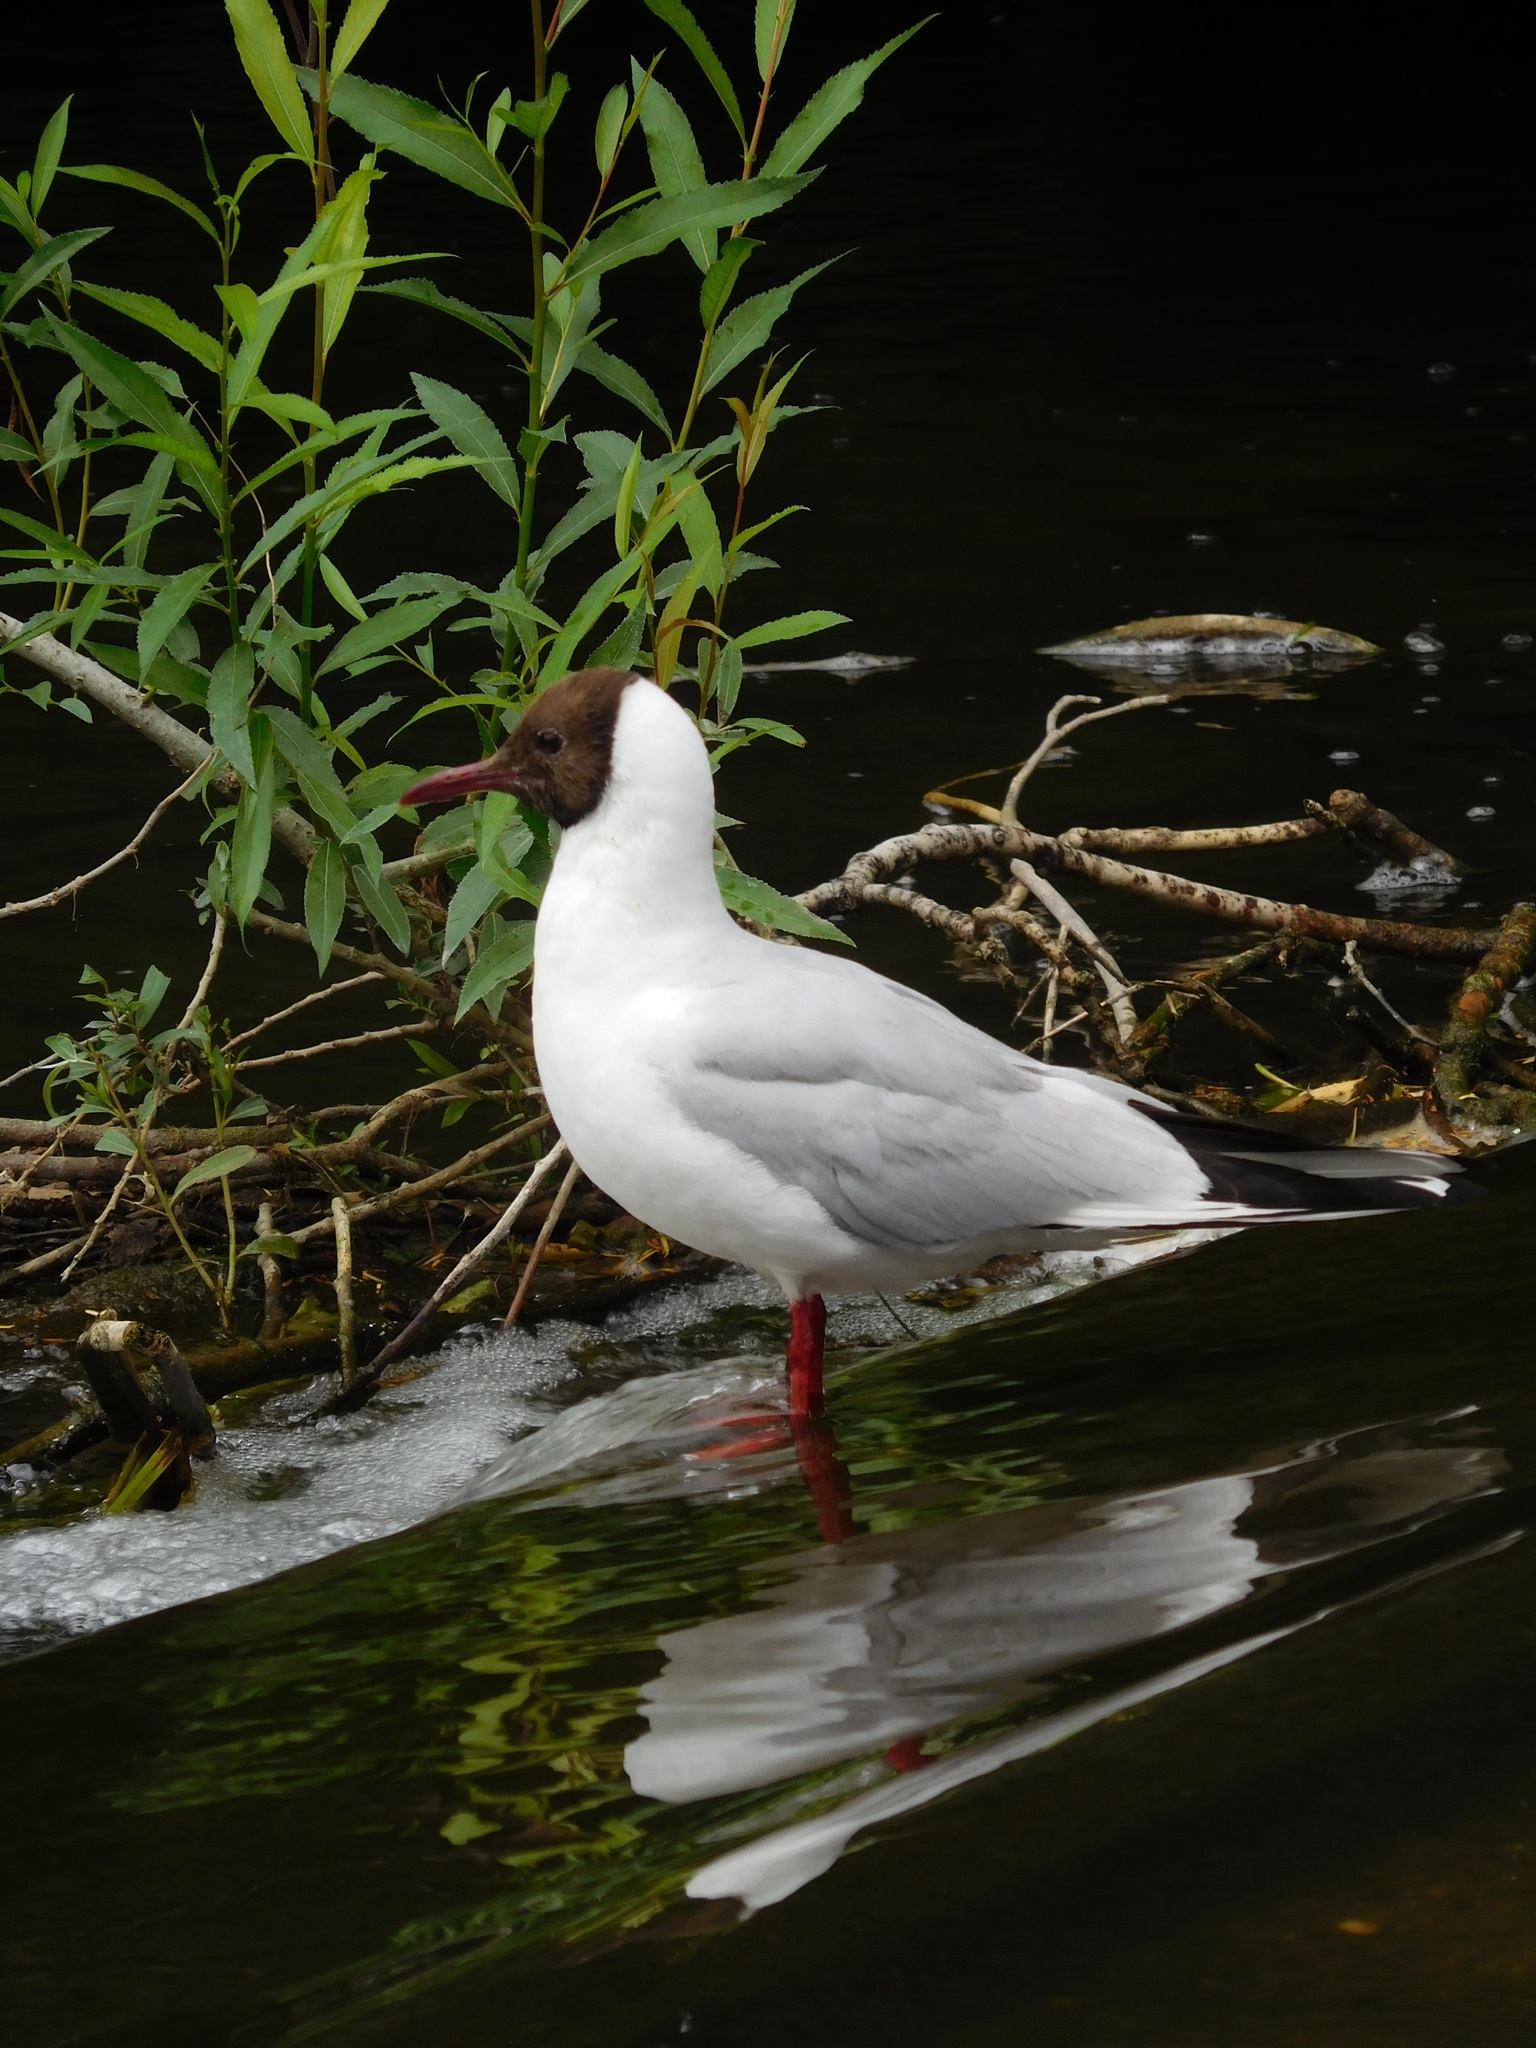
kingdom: Animalia
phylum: Chordata
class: Aves
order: Charadriiformes
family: Laridae
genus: Chroicocephalus
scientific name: Chroicocephalus ridibundus
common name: Black-headed gull
